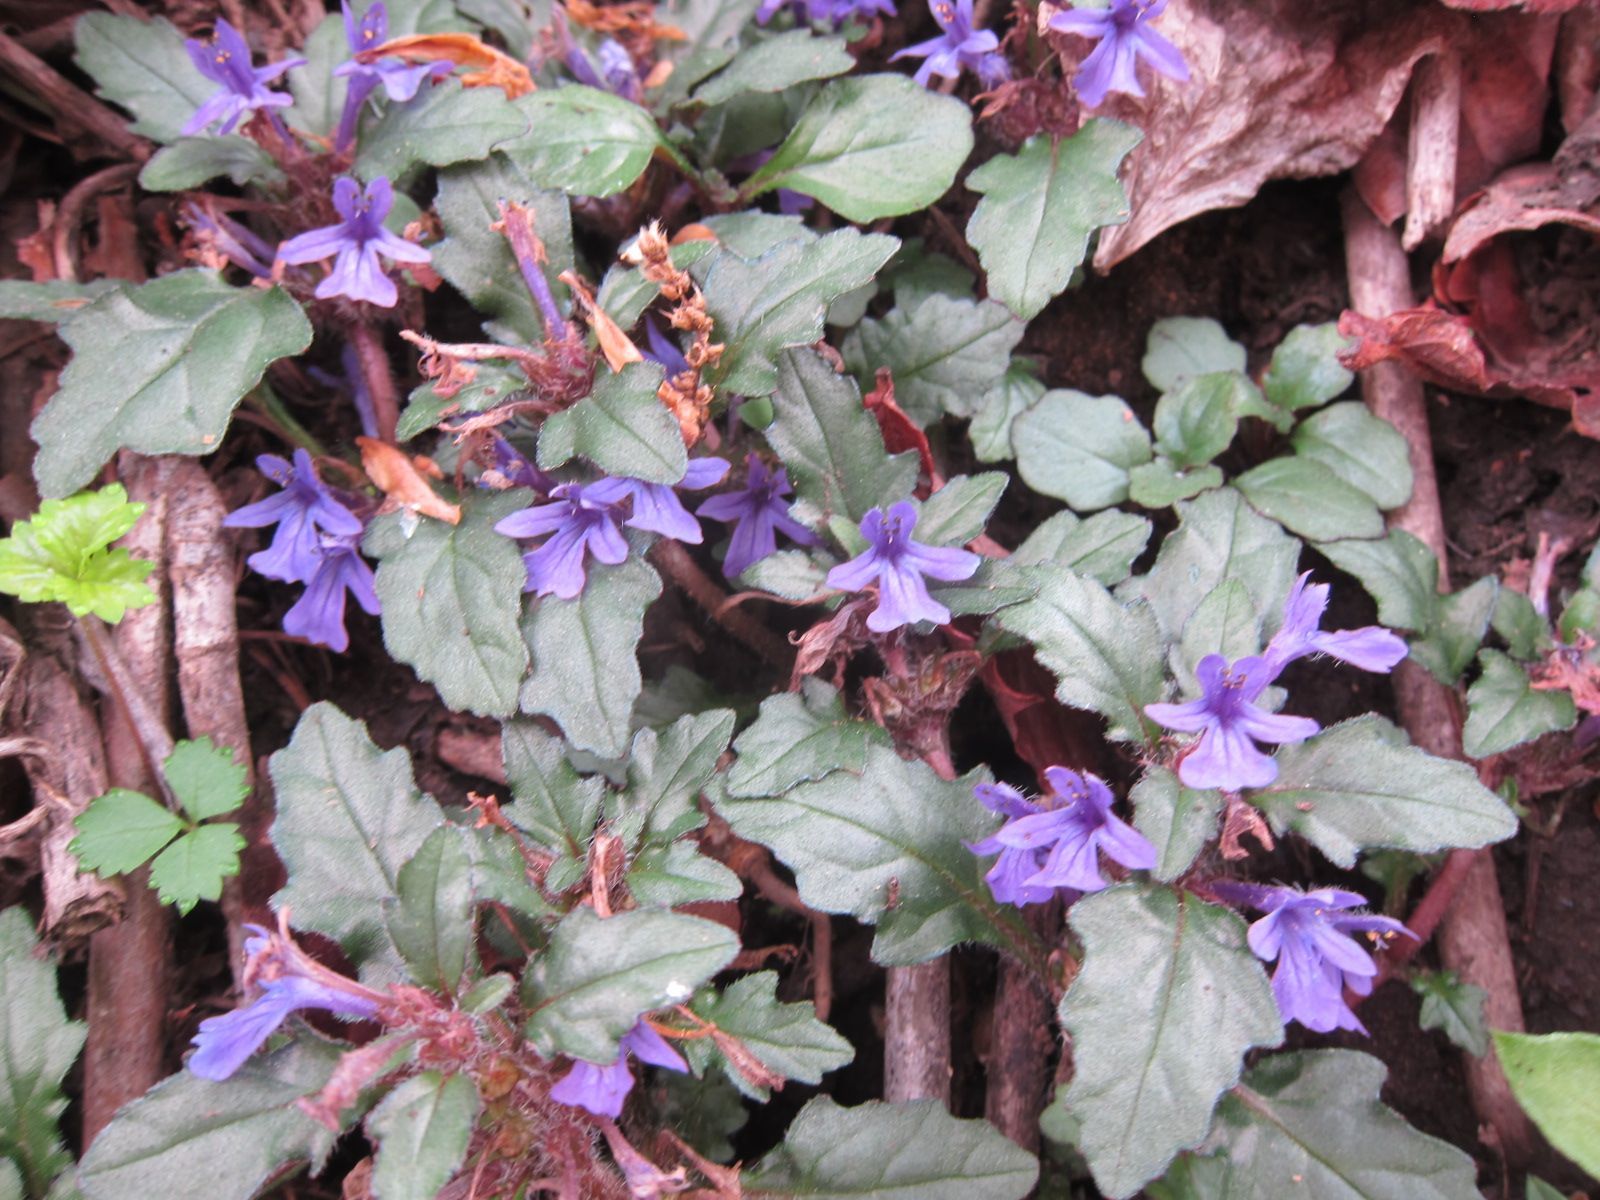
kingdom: Plantae
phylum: Tracheophyta
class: Magnoliopsida
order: Lamiales
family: Lamiaceae
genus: Ajuga
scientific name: Ajuga decumbens
